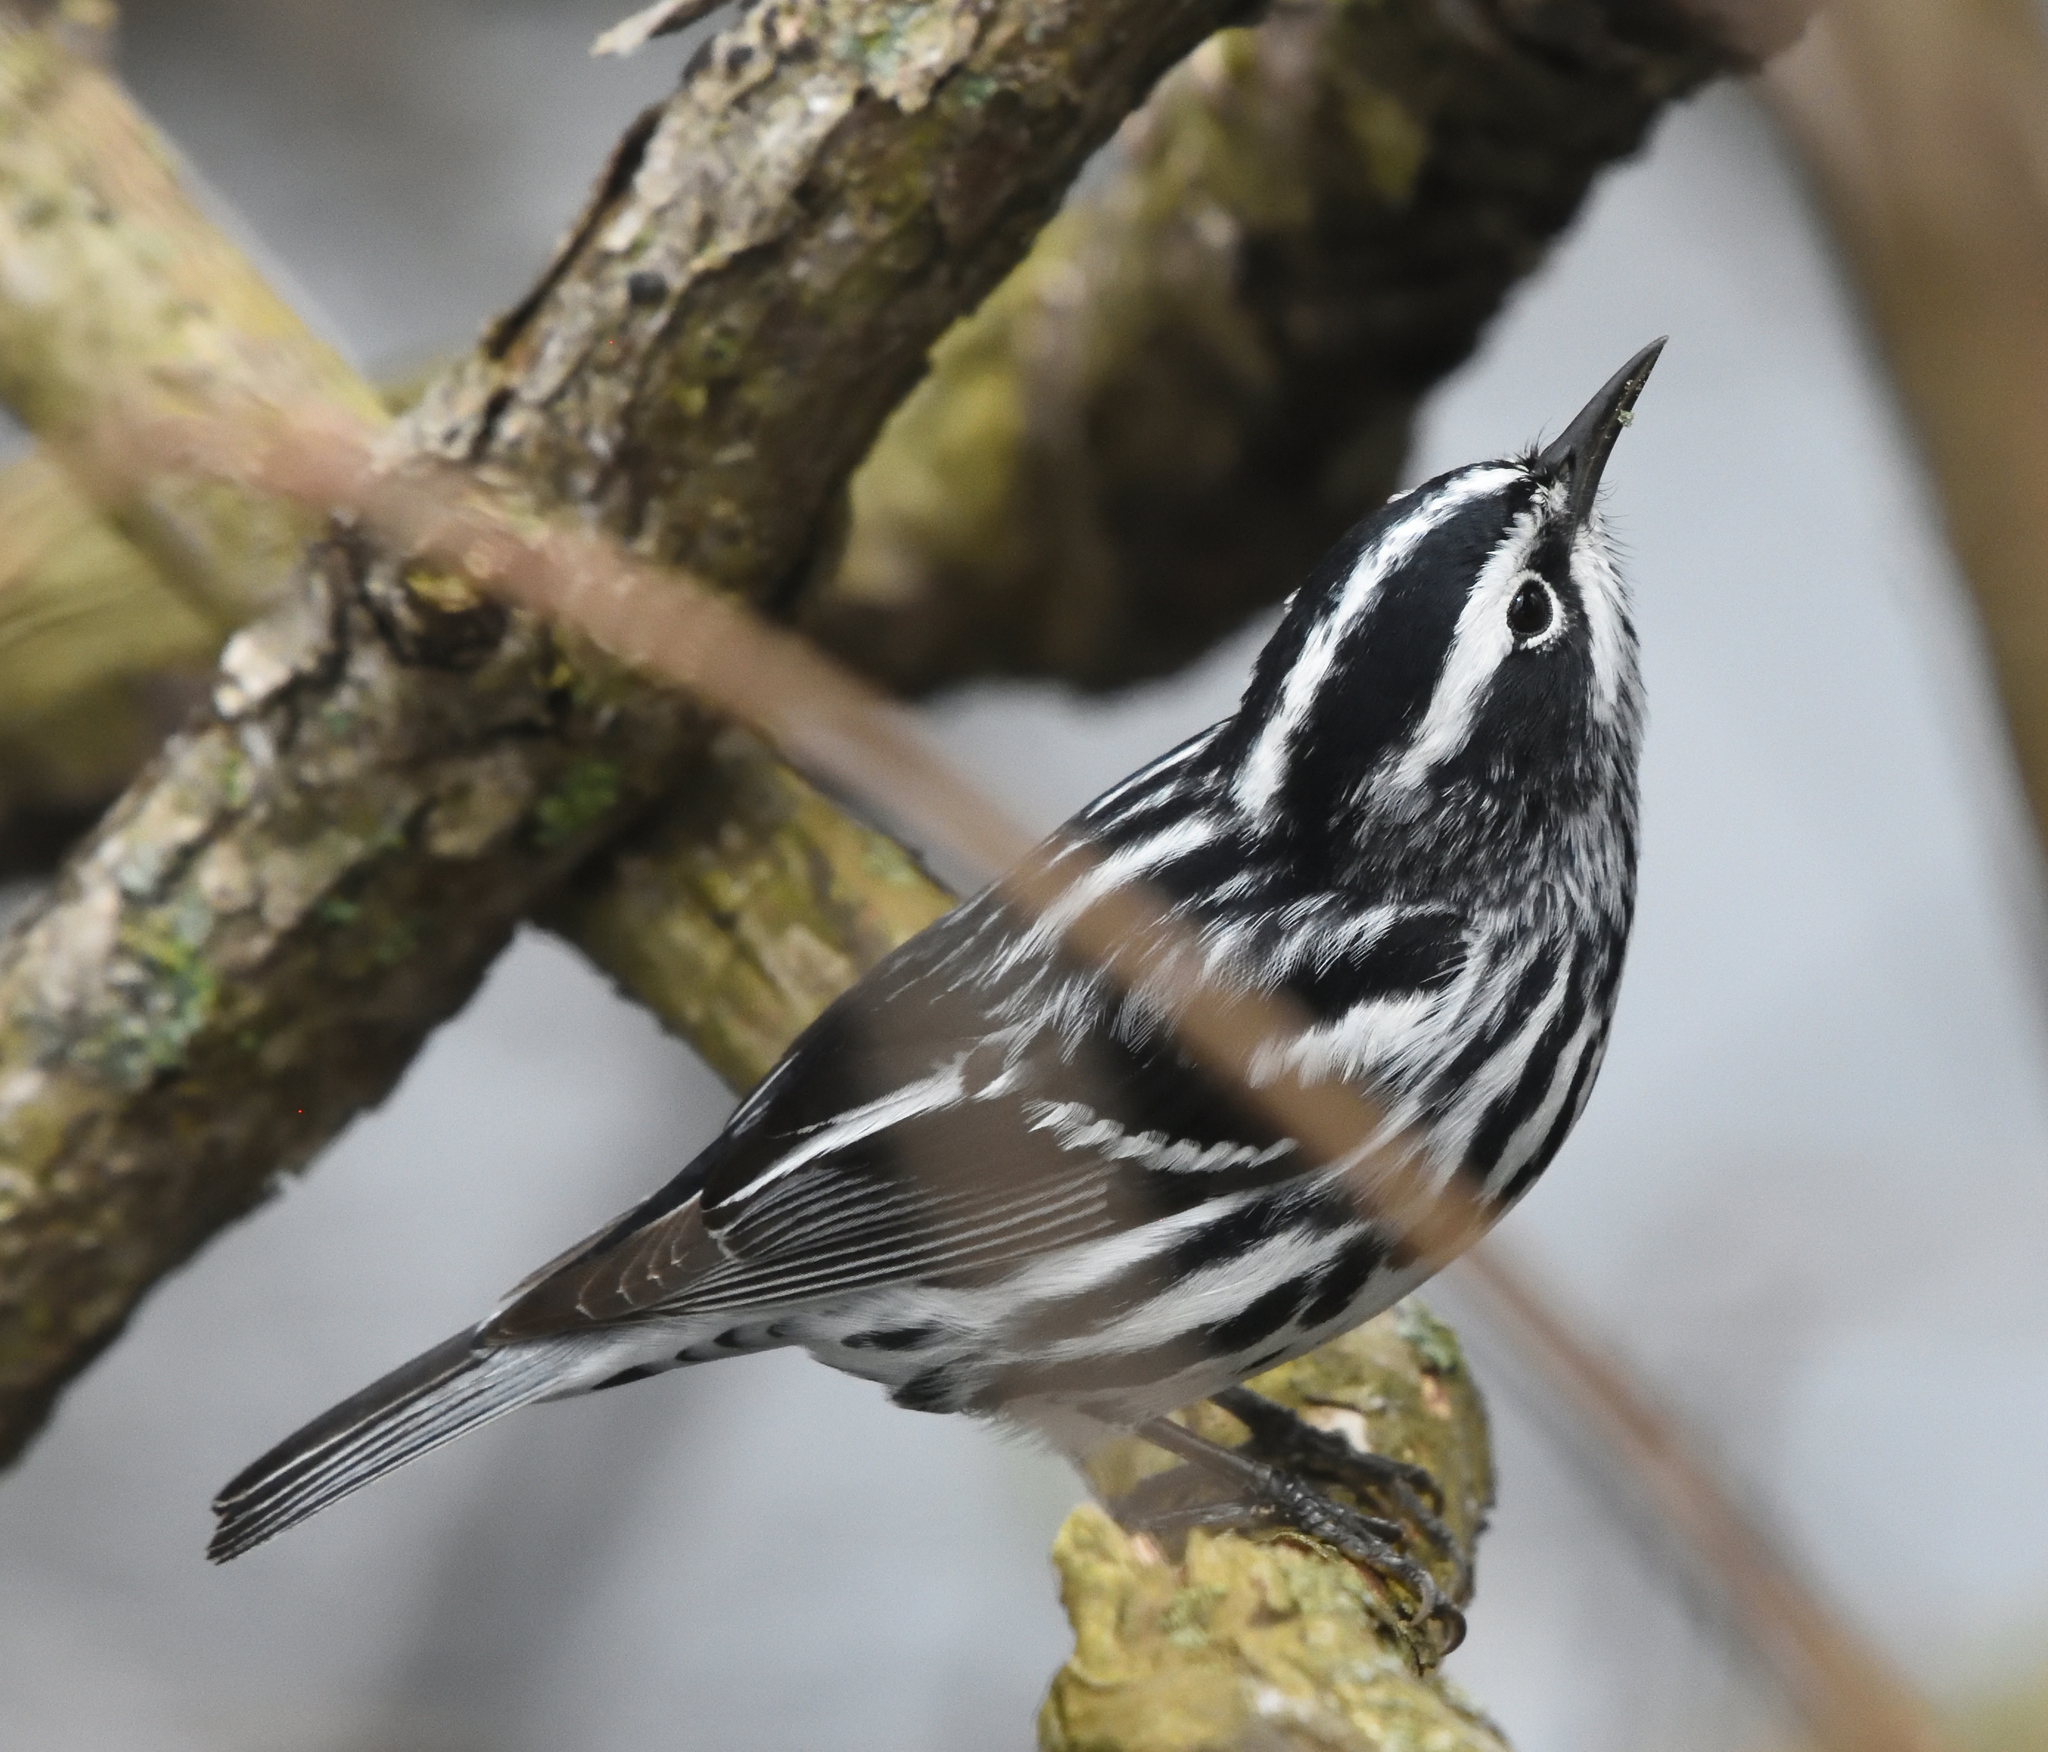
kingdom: Animalia
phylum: Chordata
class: Aves
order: Passeriformes
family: Parulidae
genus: Mniotilta
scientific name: Mniotilta varia
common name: Black-and-white warbler
